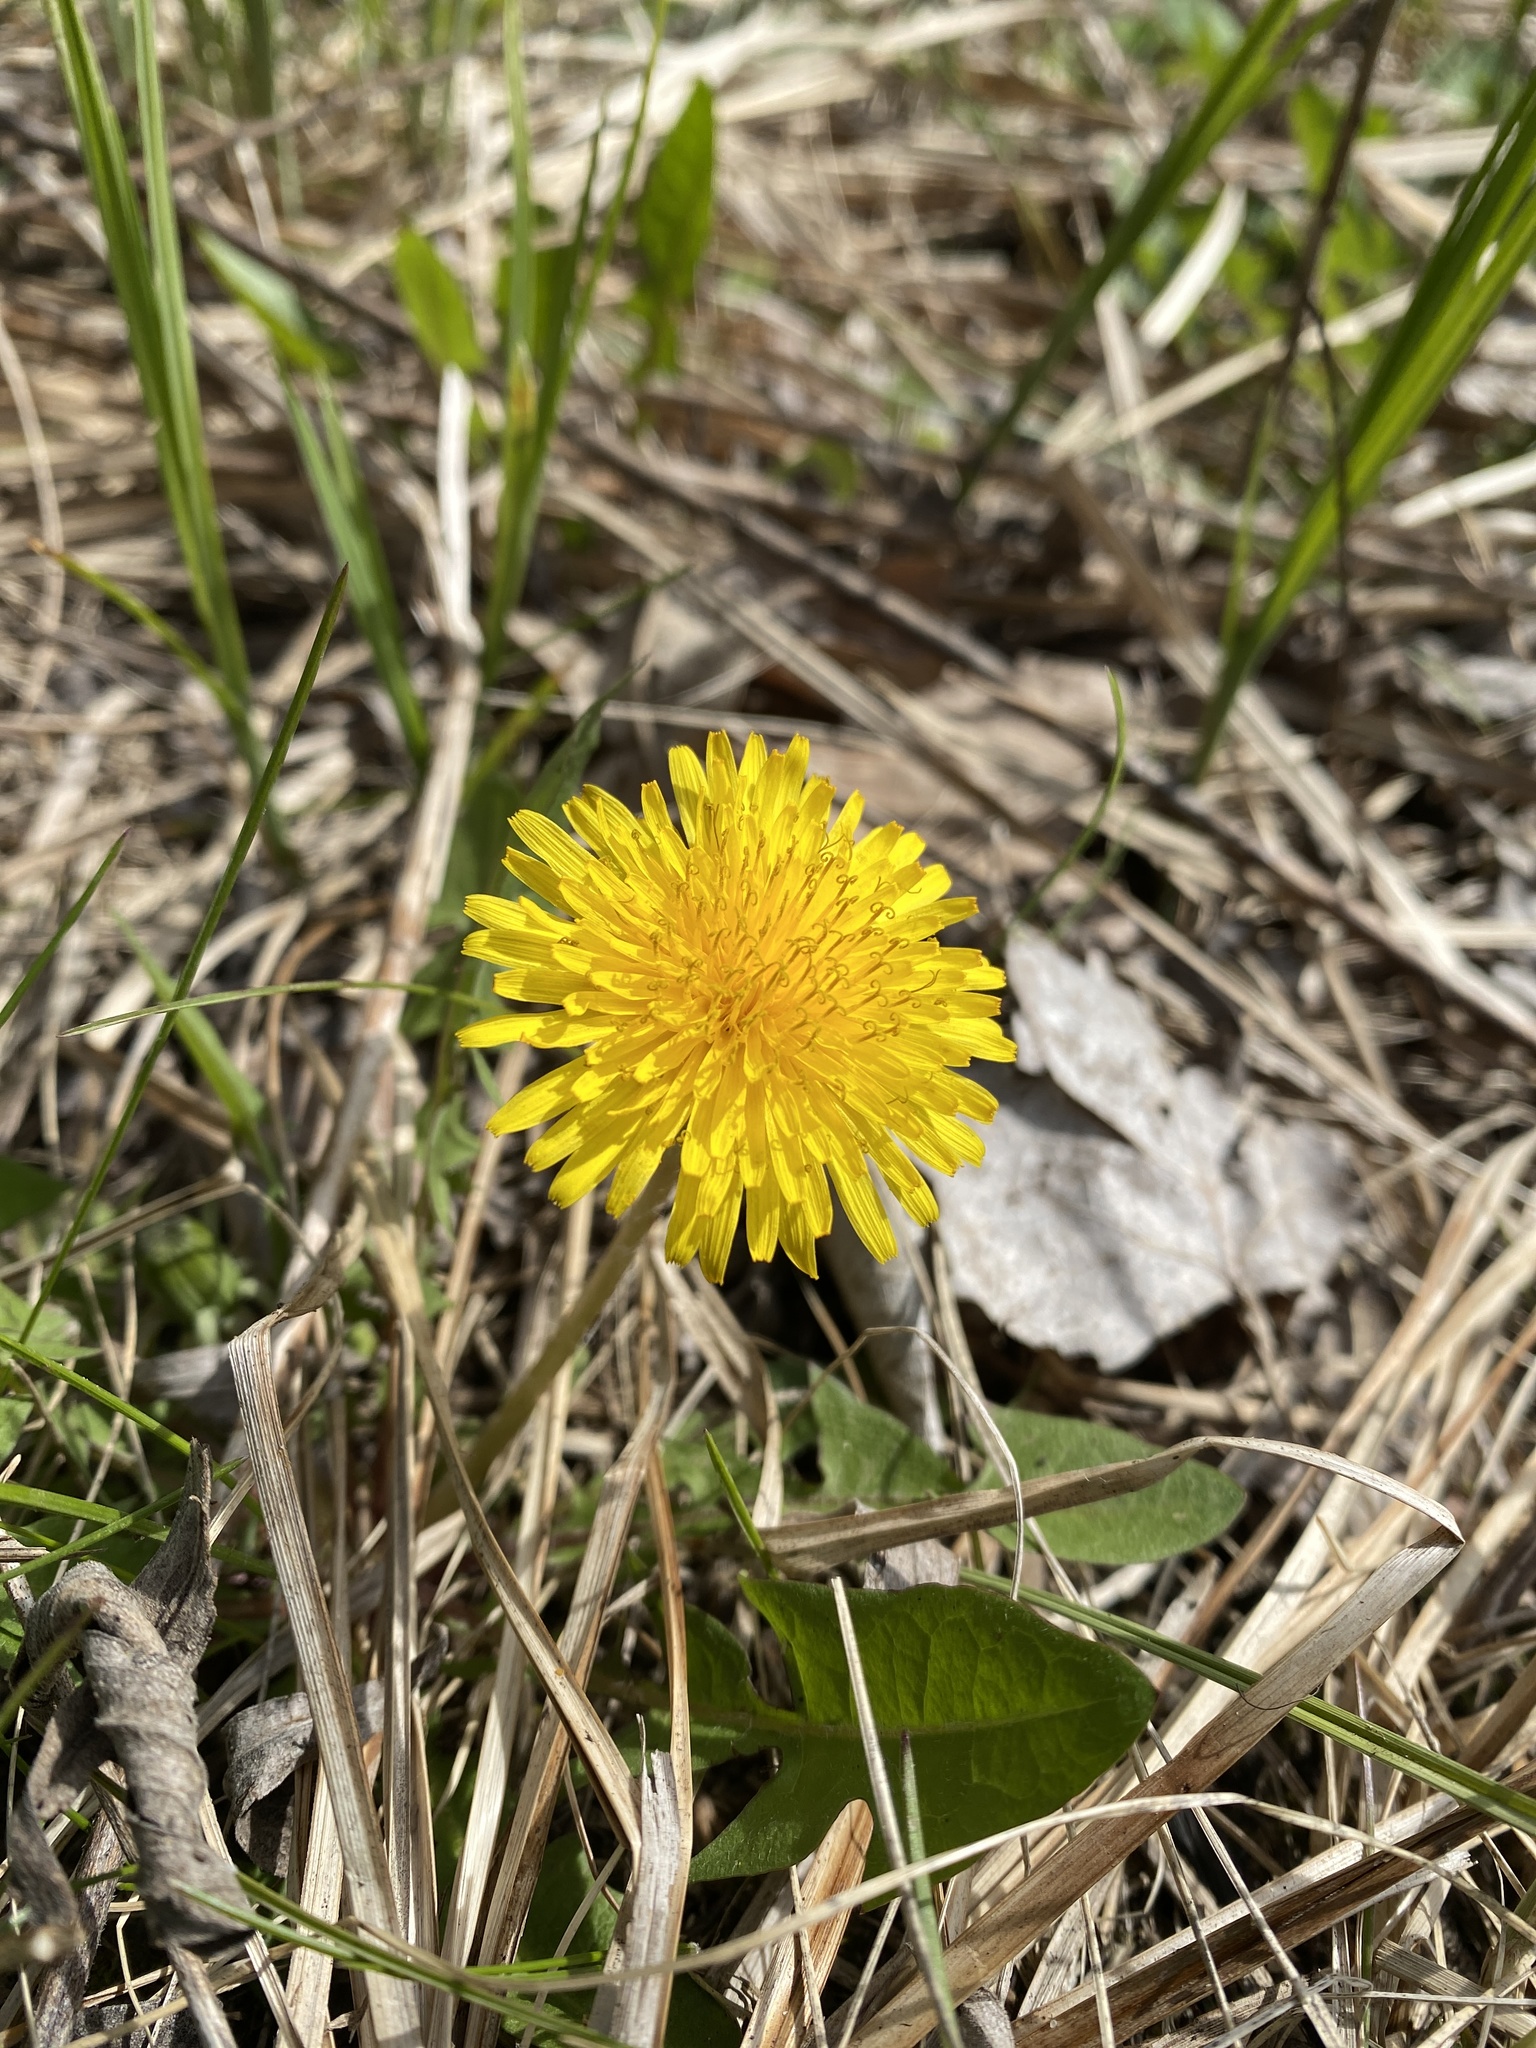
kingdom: Plantae
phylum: Tracheophyta
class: Magnoliopsida
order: Asterales
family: Asteraceae
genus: Taraxacum
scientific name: Taraxacum officinale
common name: Common dandelion
